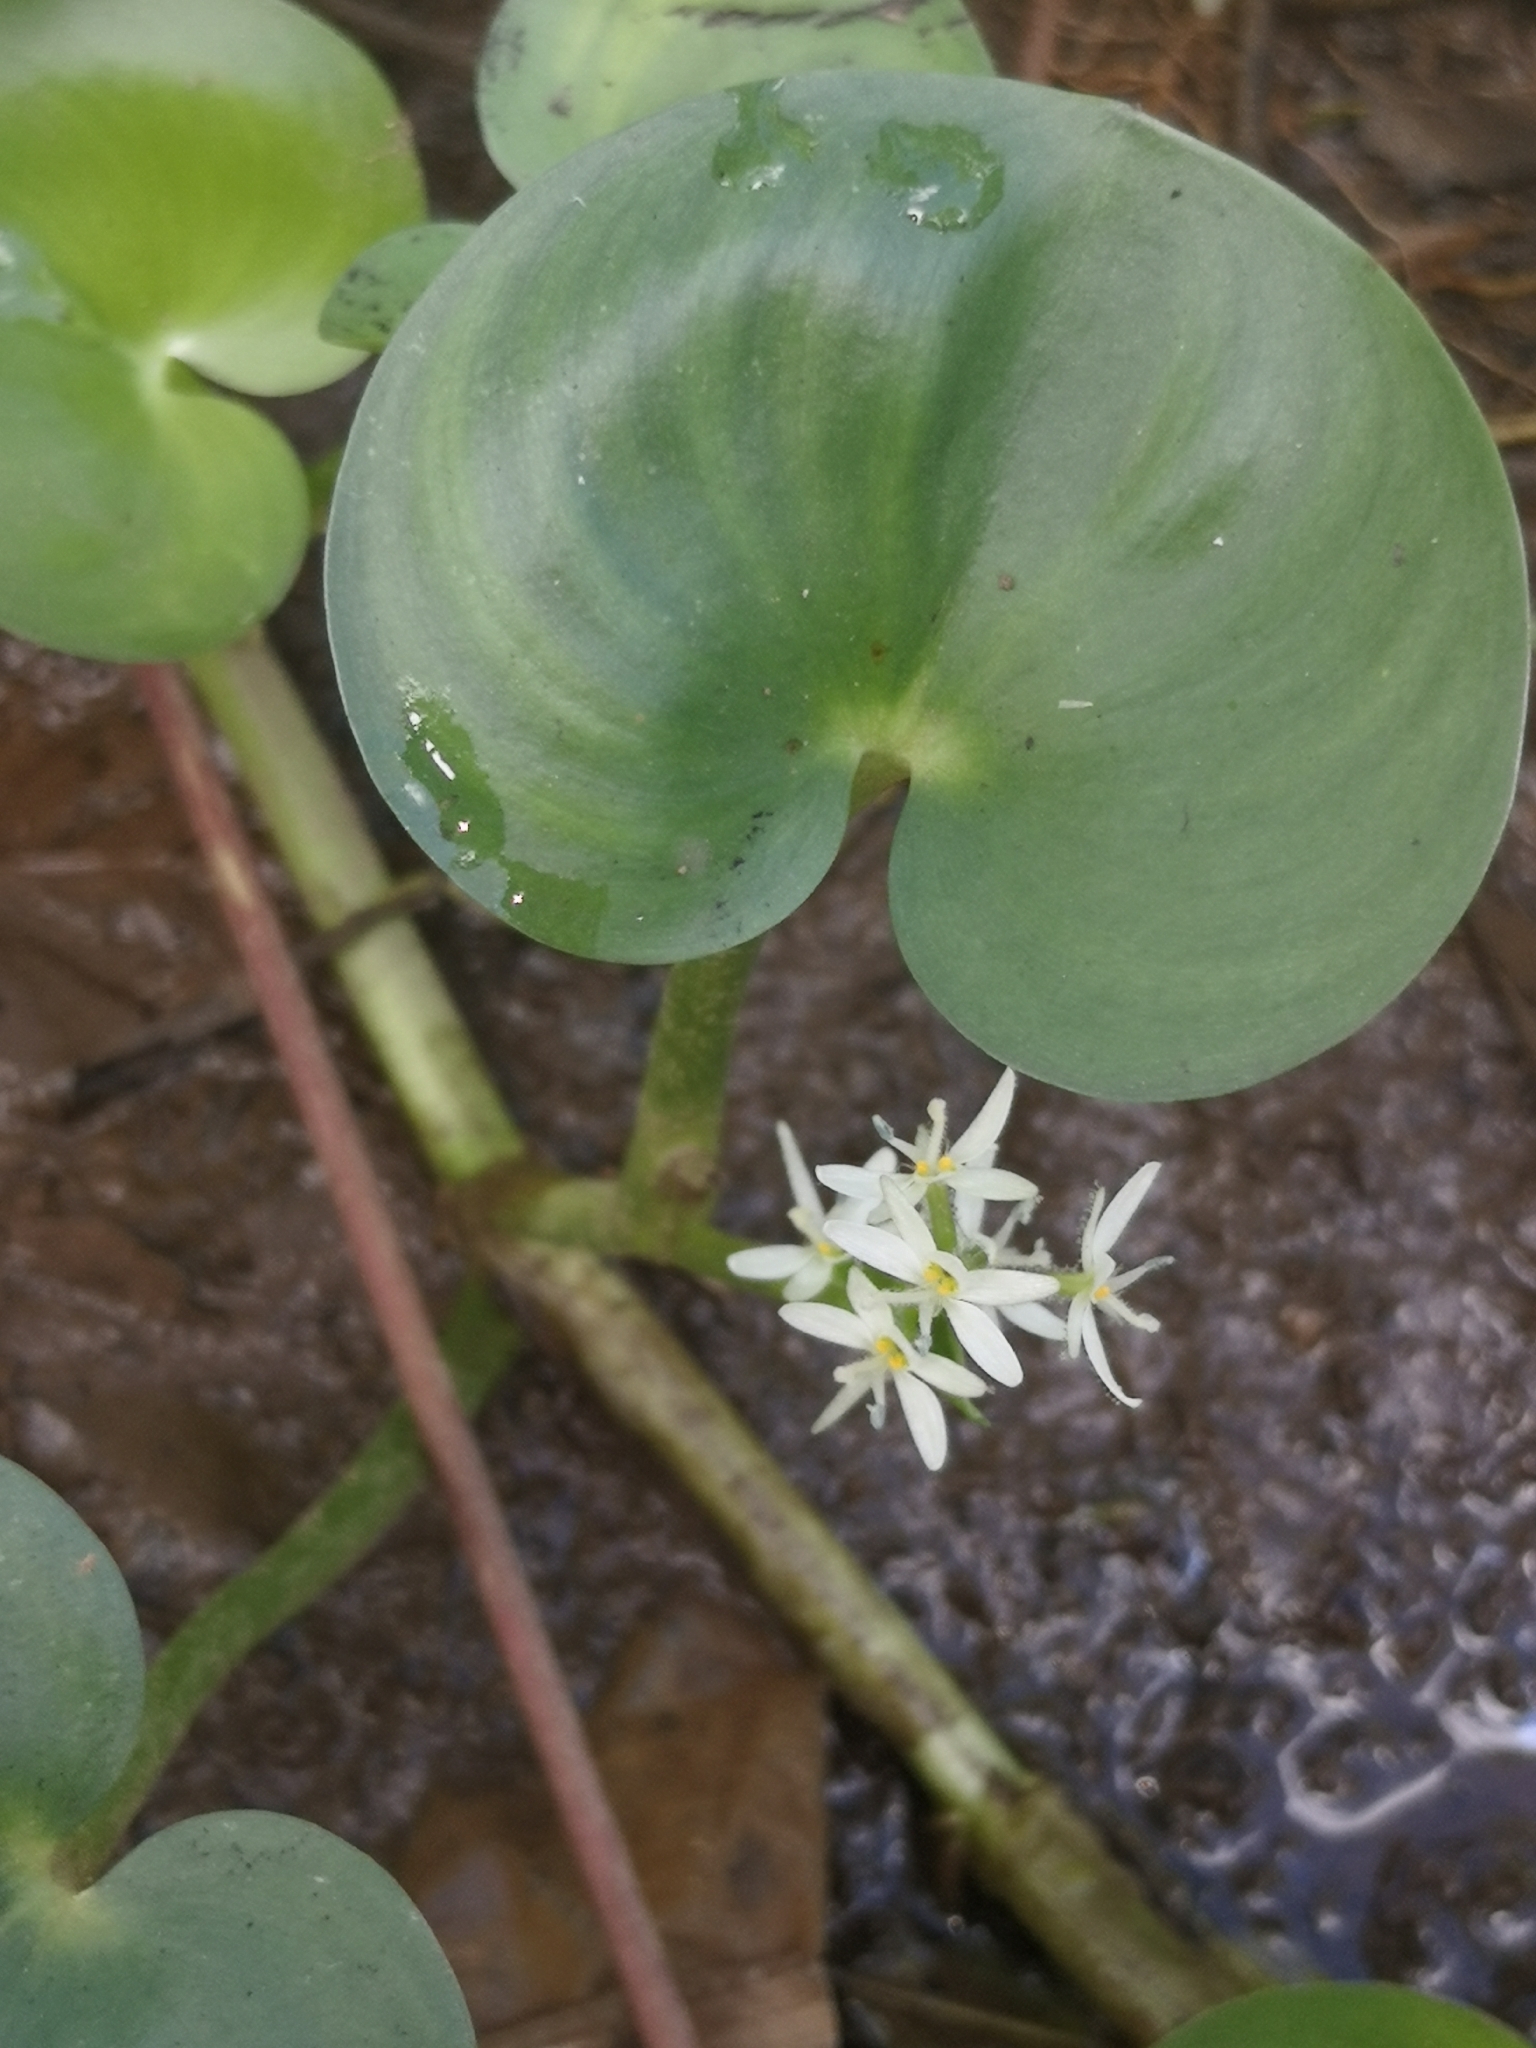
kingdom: Plantae
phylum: Tracheophyta
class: Liliopsida
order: Commelinales
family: Pontederiaceae
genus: Heteranthera
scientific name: Heteranthera reniformis
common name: Kidneyleaf mudplantain
